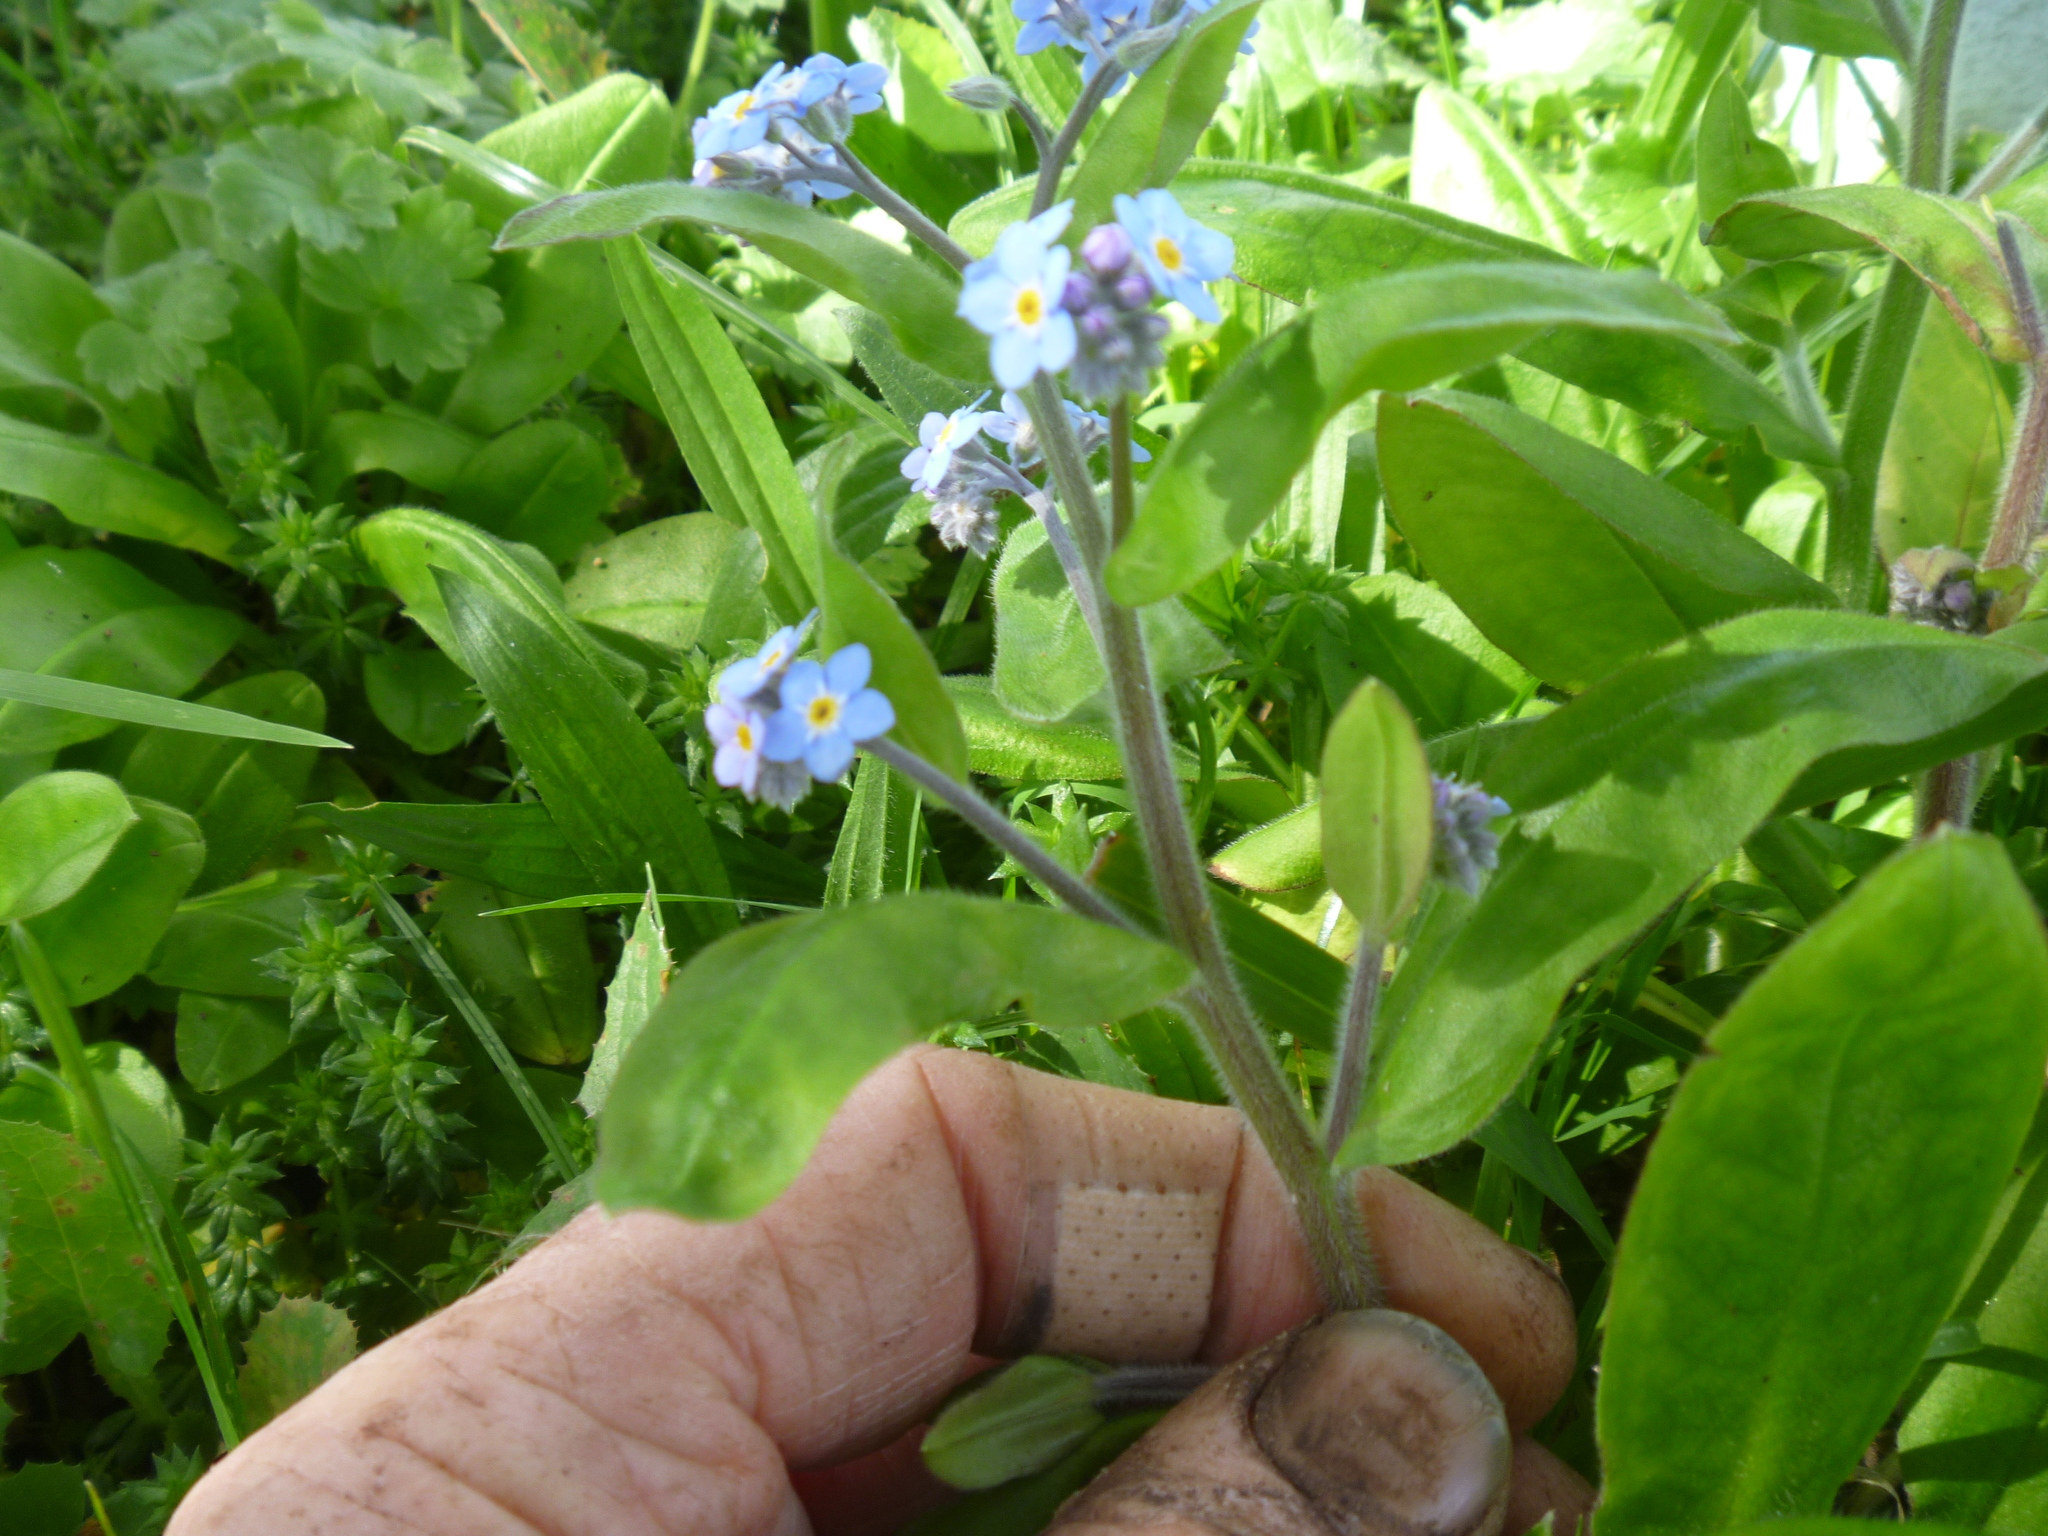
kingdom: Plantae
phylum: Tracheophyta
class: Magnoliopsida
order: Boraginales
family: Boraginaceae
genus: Myosotis
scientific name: Myosotis sylvatica
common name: Wood forget-me-not
